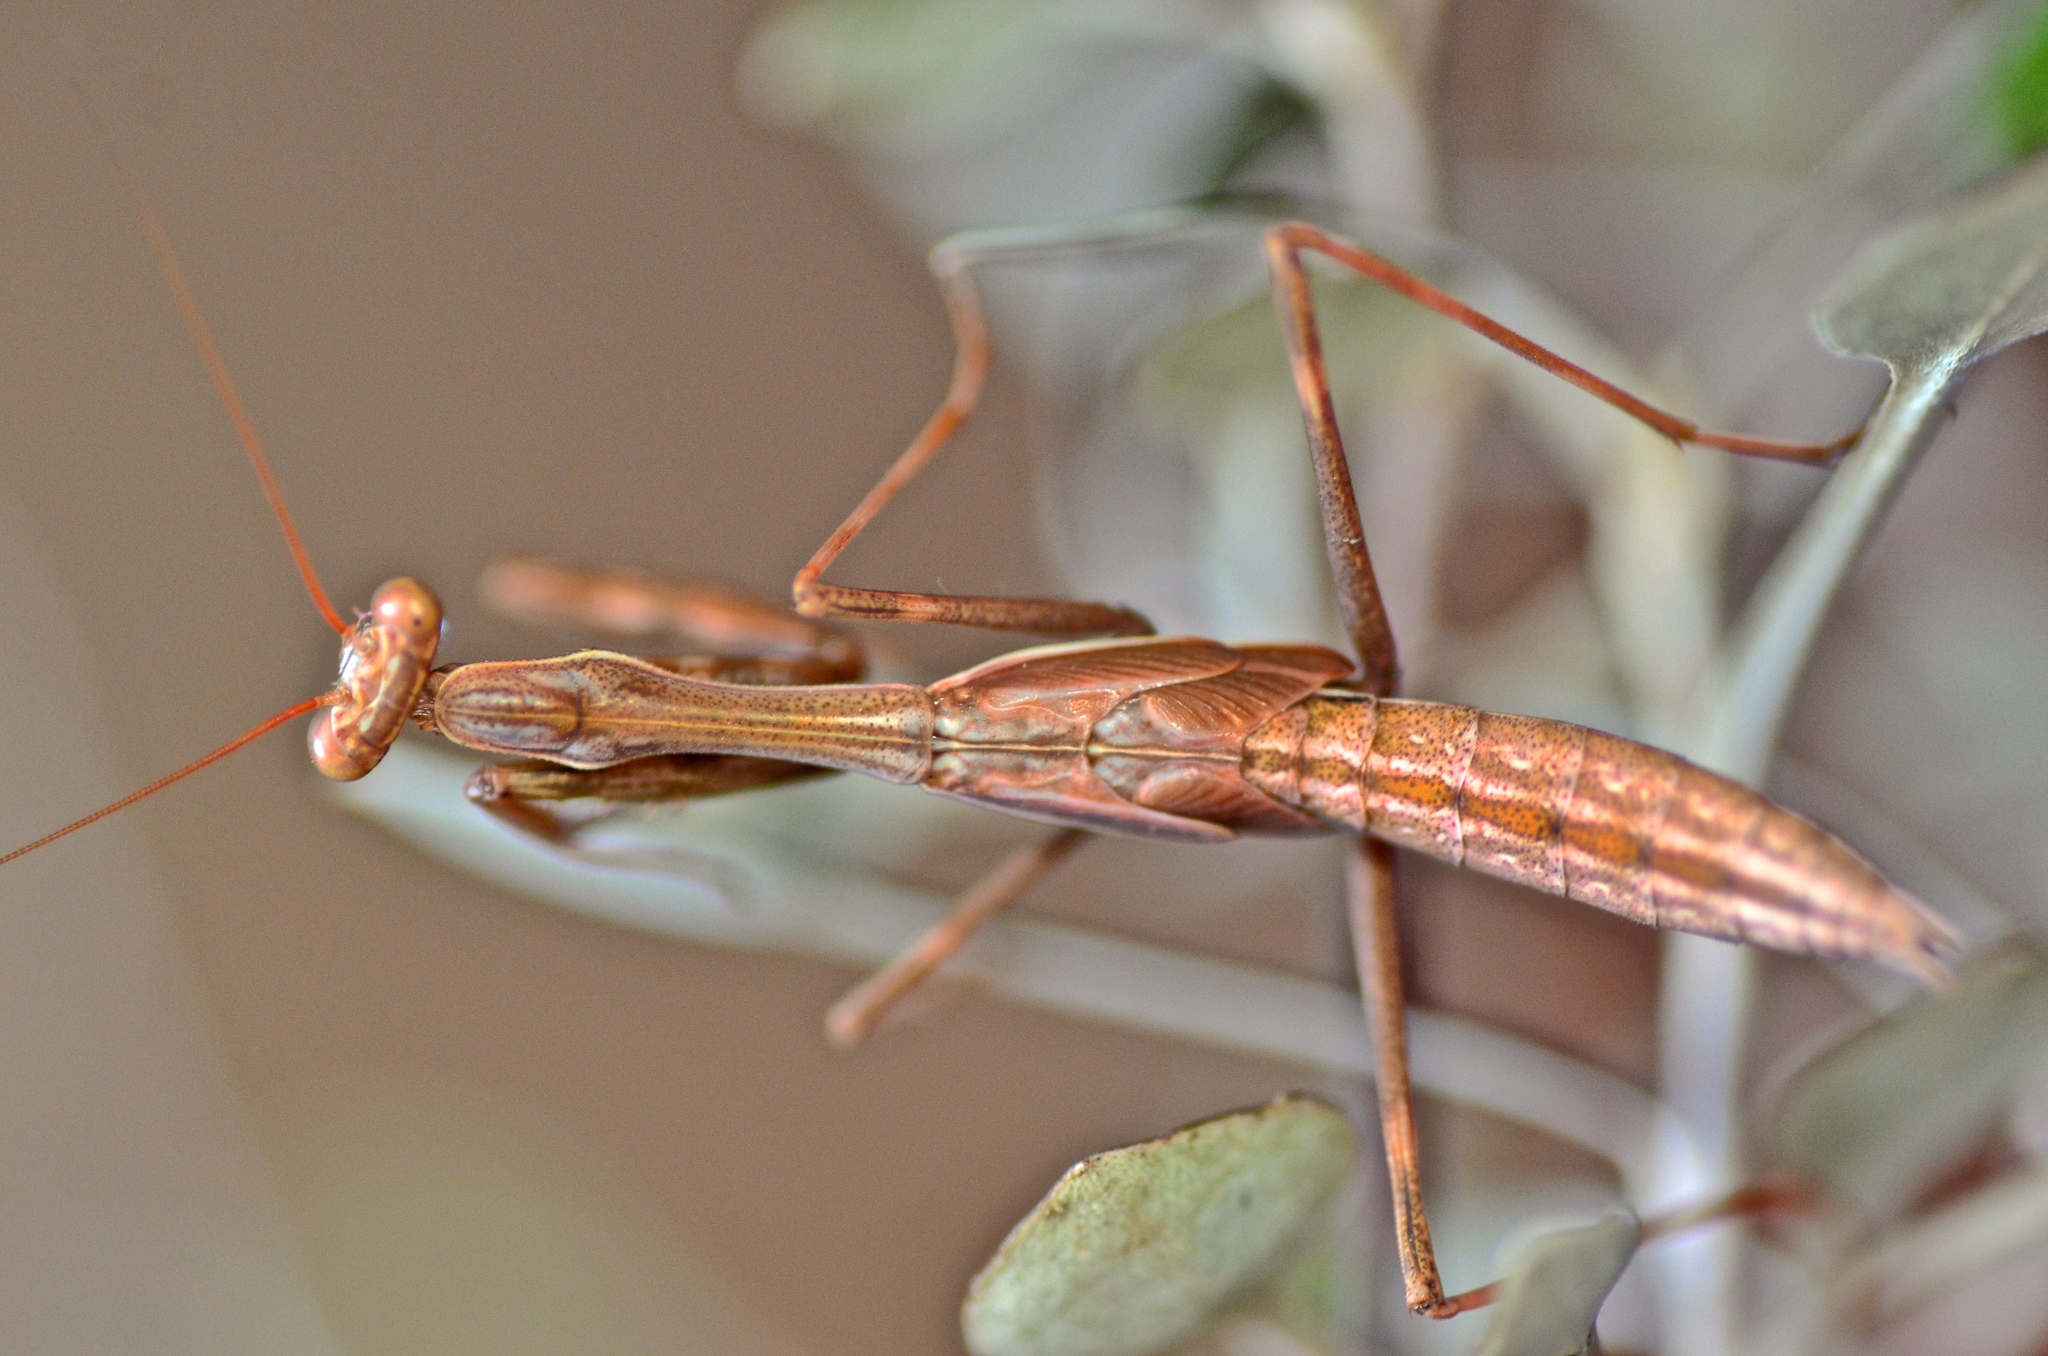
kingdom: Animalia
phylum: Arthropoda
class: Insecta
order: Mantodea
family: Miomantidae
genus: Miomantis
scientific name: Miomantis caffra
